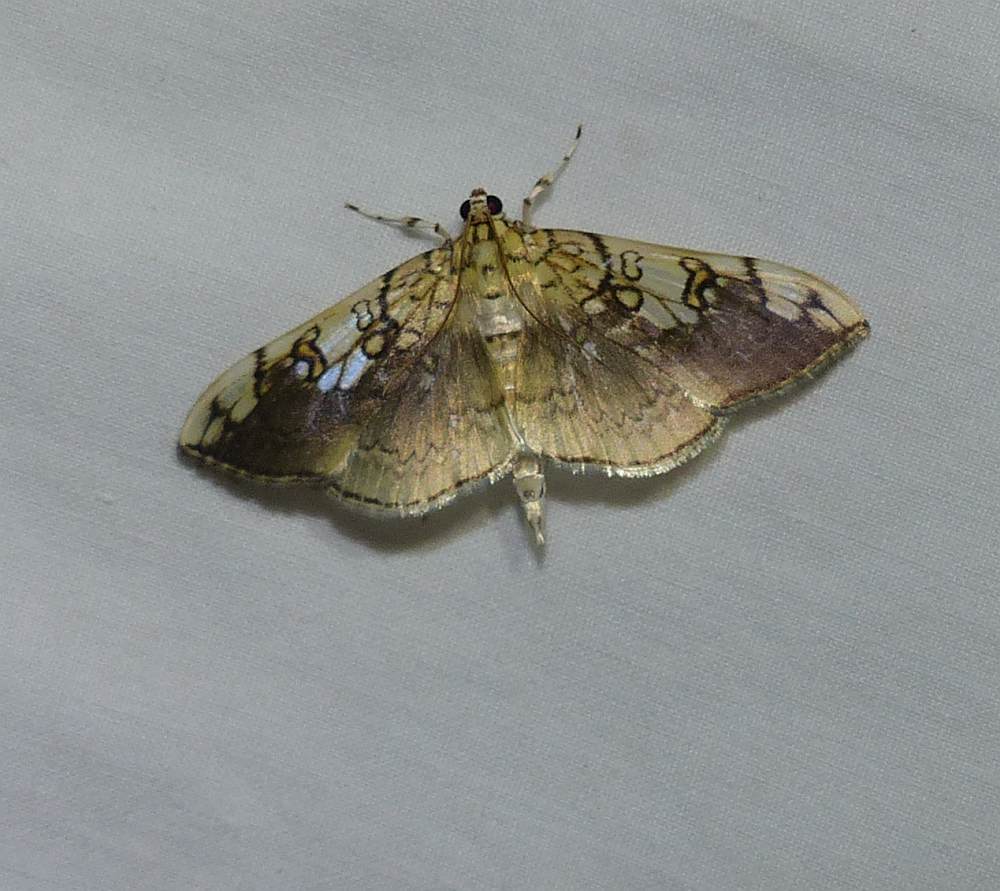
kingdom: Animalia
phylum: Arthropoda
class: Insecta
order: Lepidoptera
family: Crambidae
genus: Pantographa
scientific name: Pantographa limata
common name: Basswood leafroller moth
